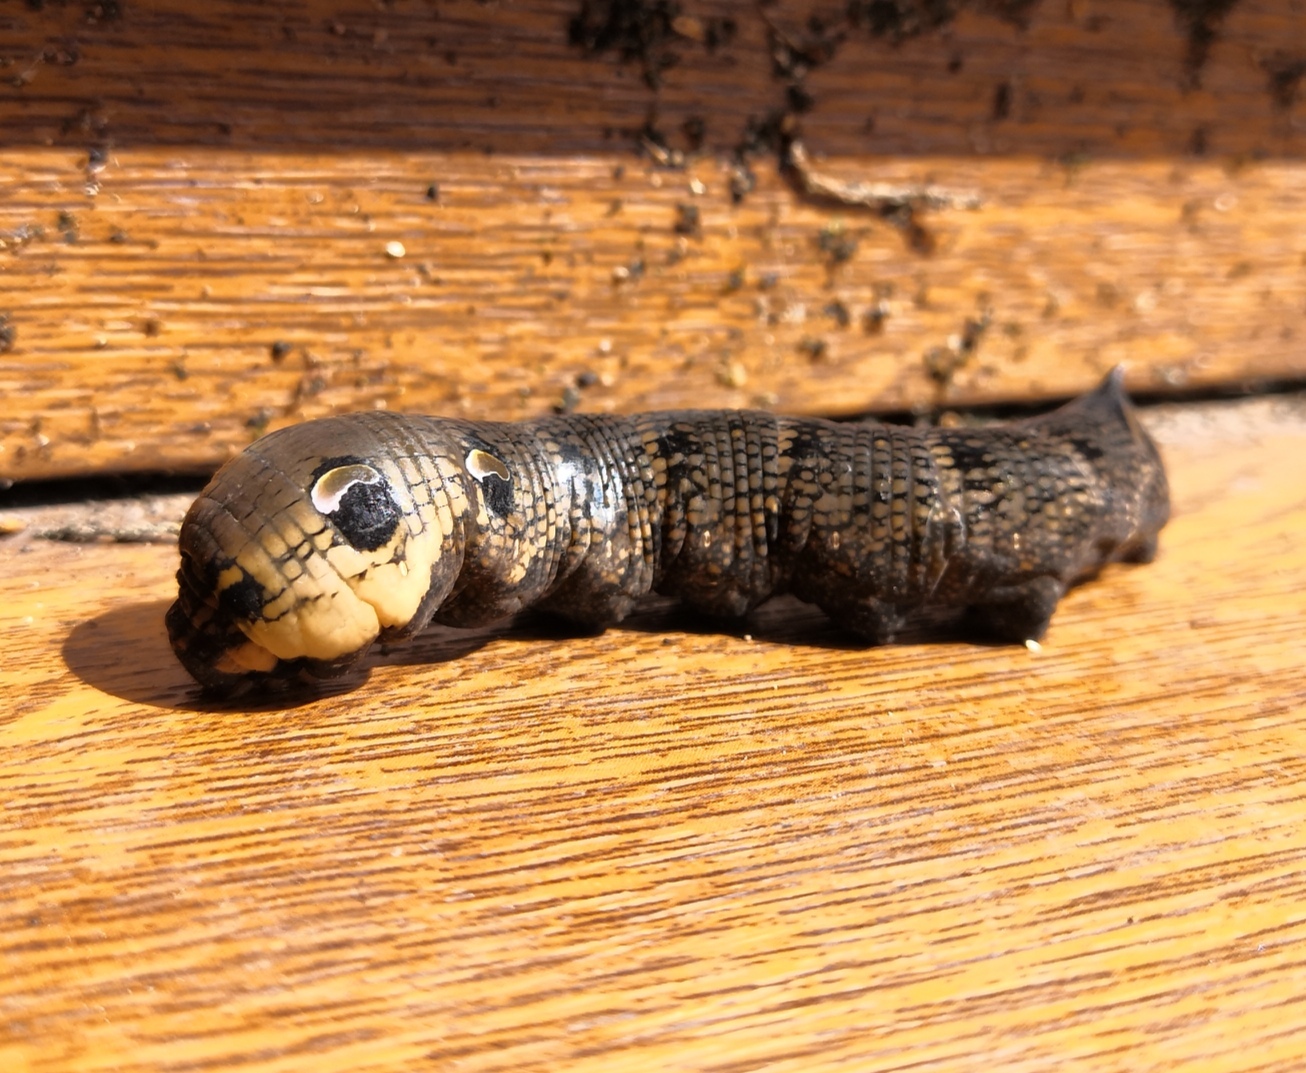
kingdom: Animalia
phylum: Arthropoda
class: Insecta
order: Lepidoptera
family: Sphingidae
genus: Deilephila
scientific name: Deilephila elpenor
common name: Elephant hawk-moth
